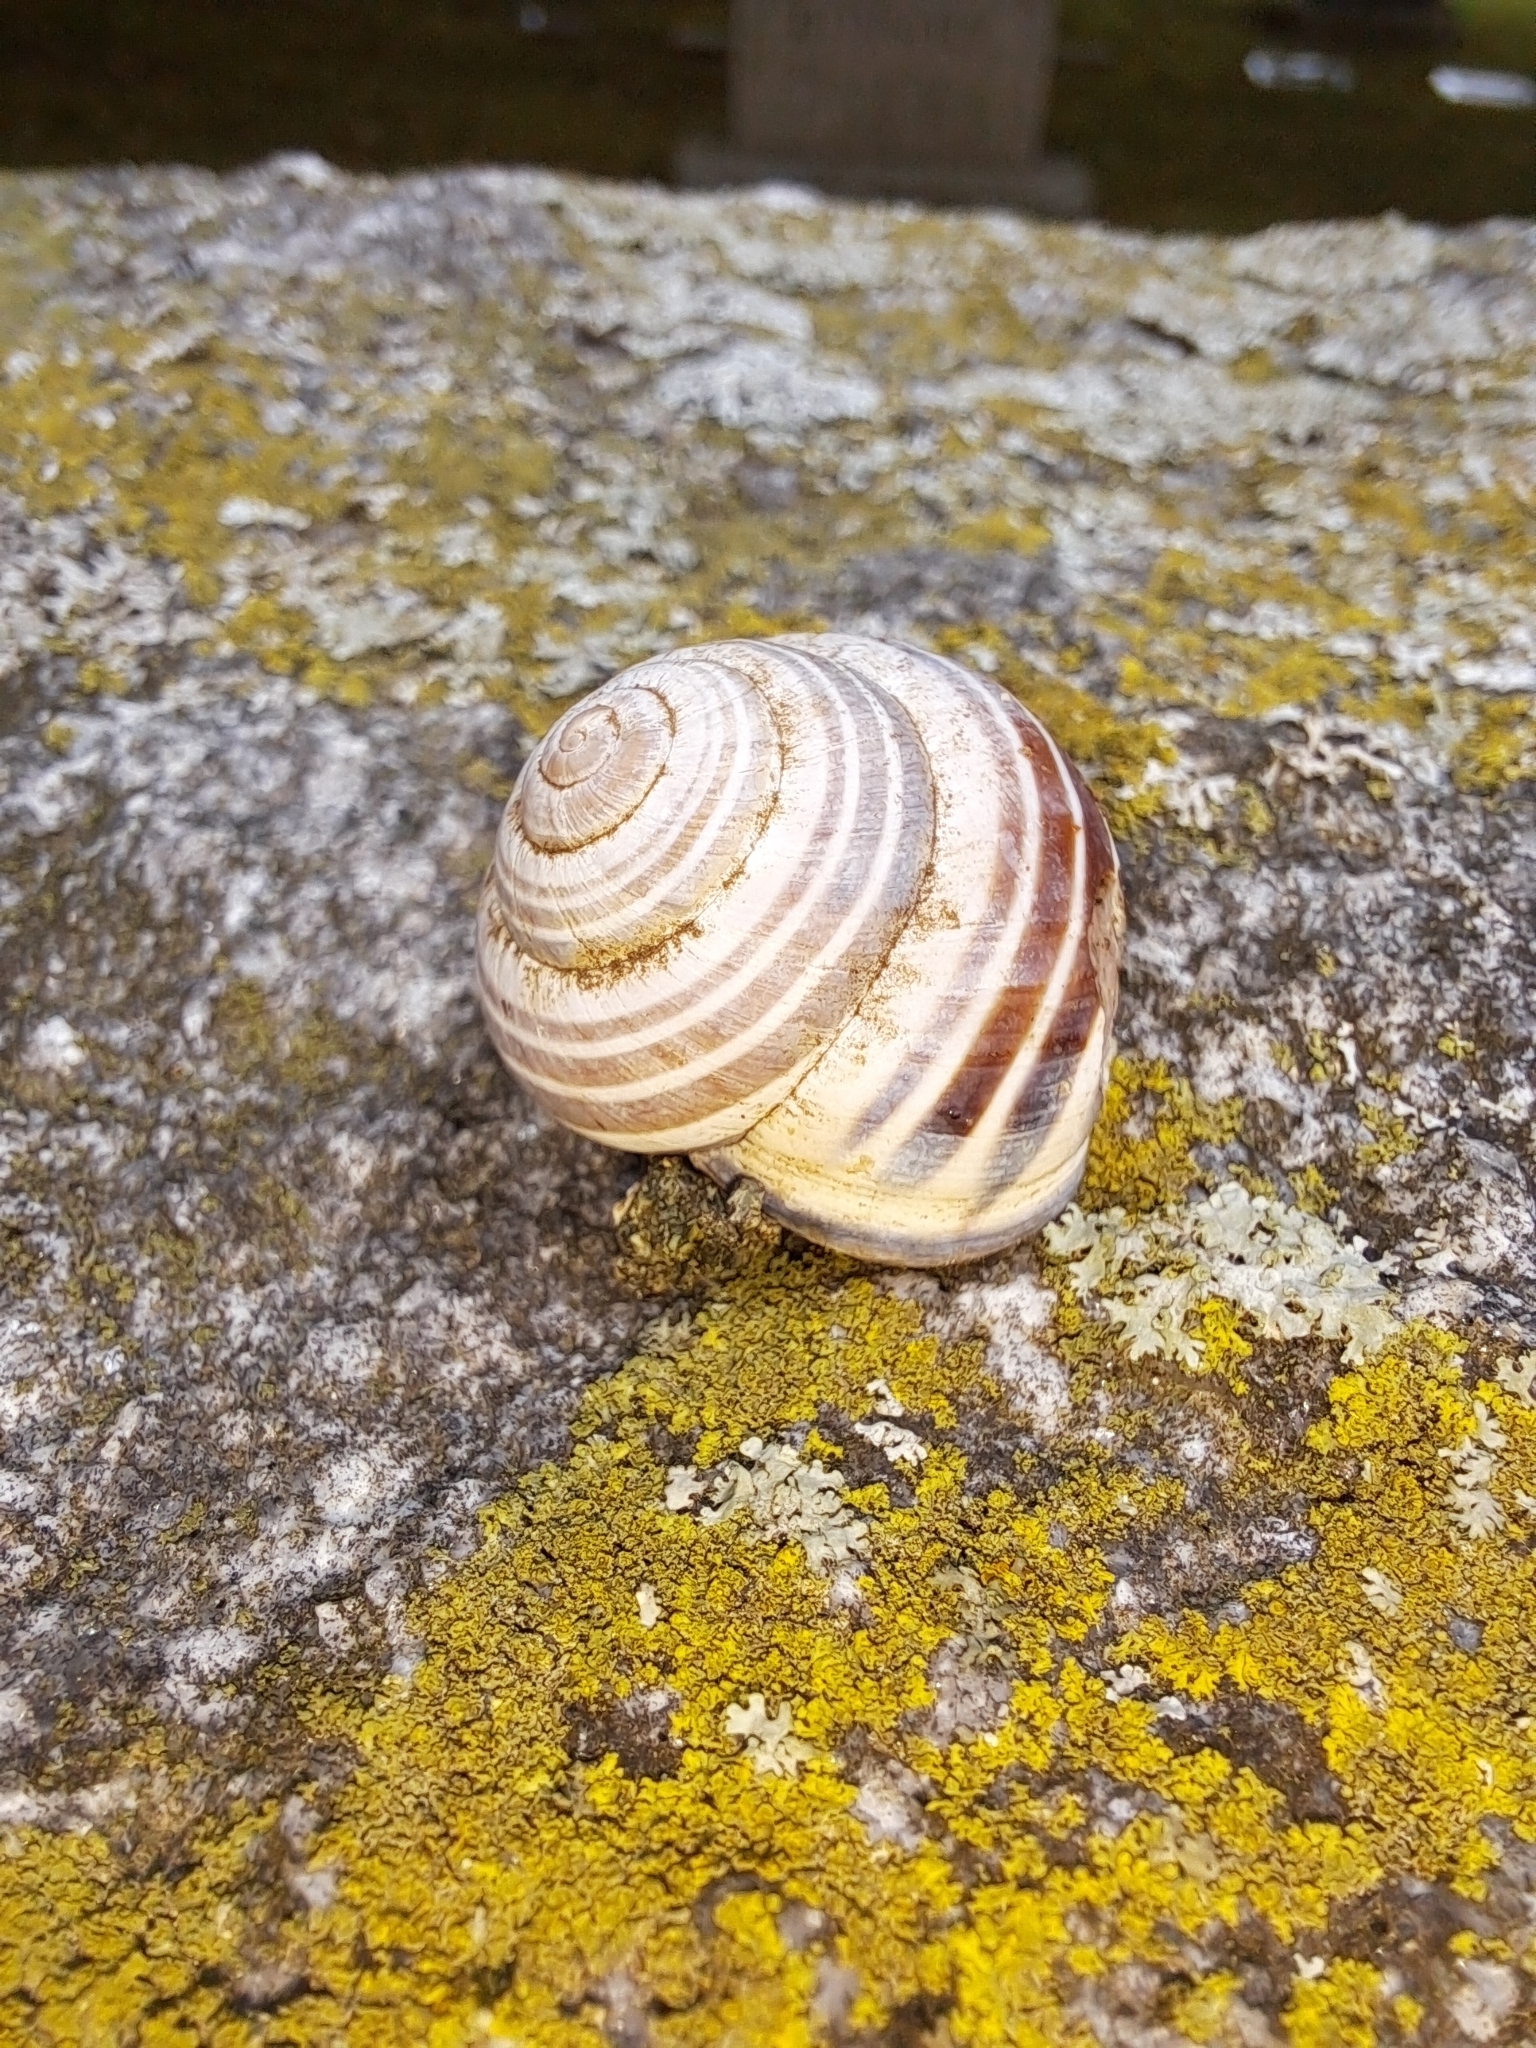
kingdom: Animalia
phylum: Mollusca
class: Gastropoda
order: Stylommatophora
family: Helicidae
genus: Cepaea
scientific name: Cepaea nemoralis
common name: Grovesnail
